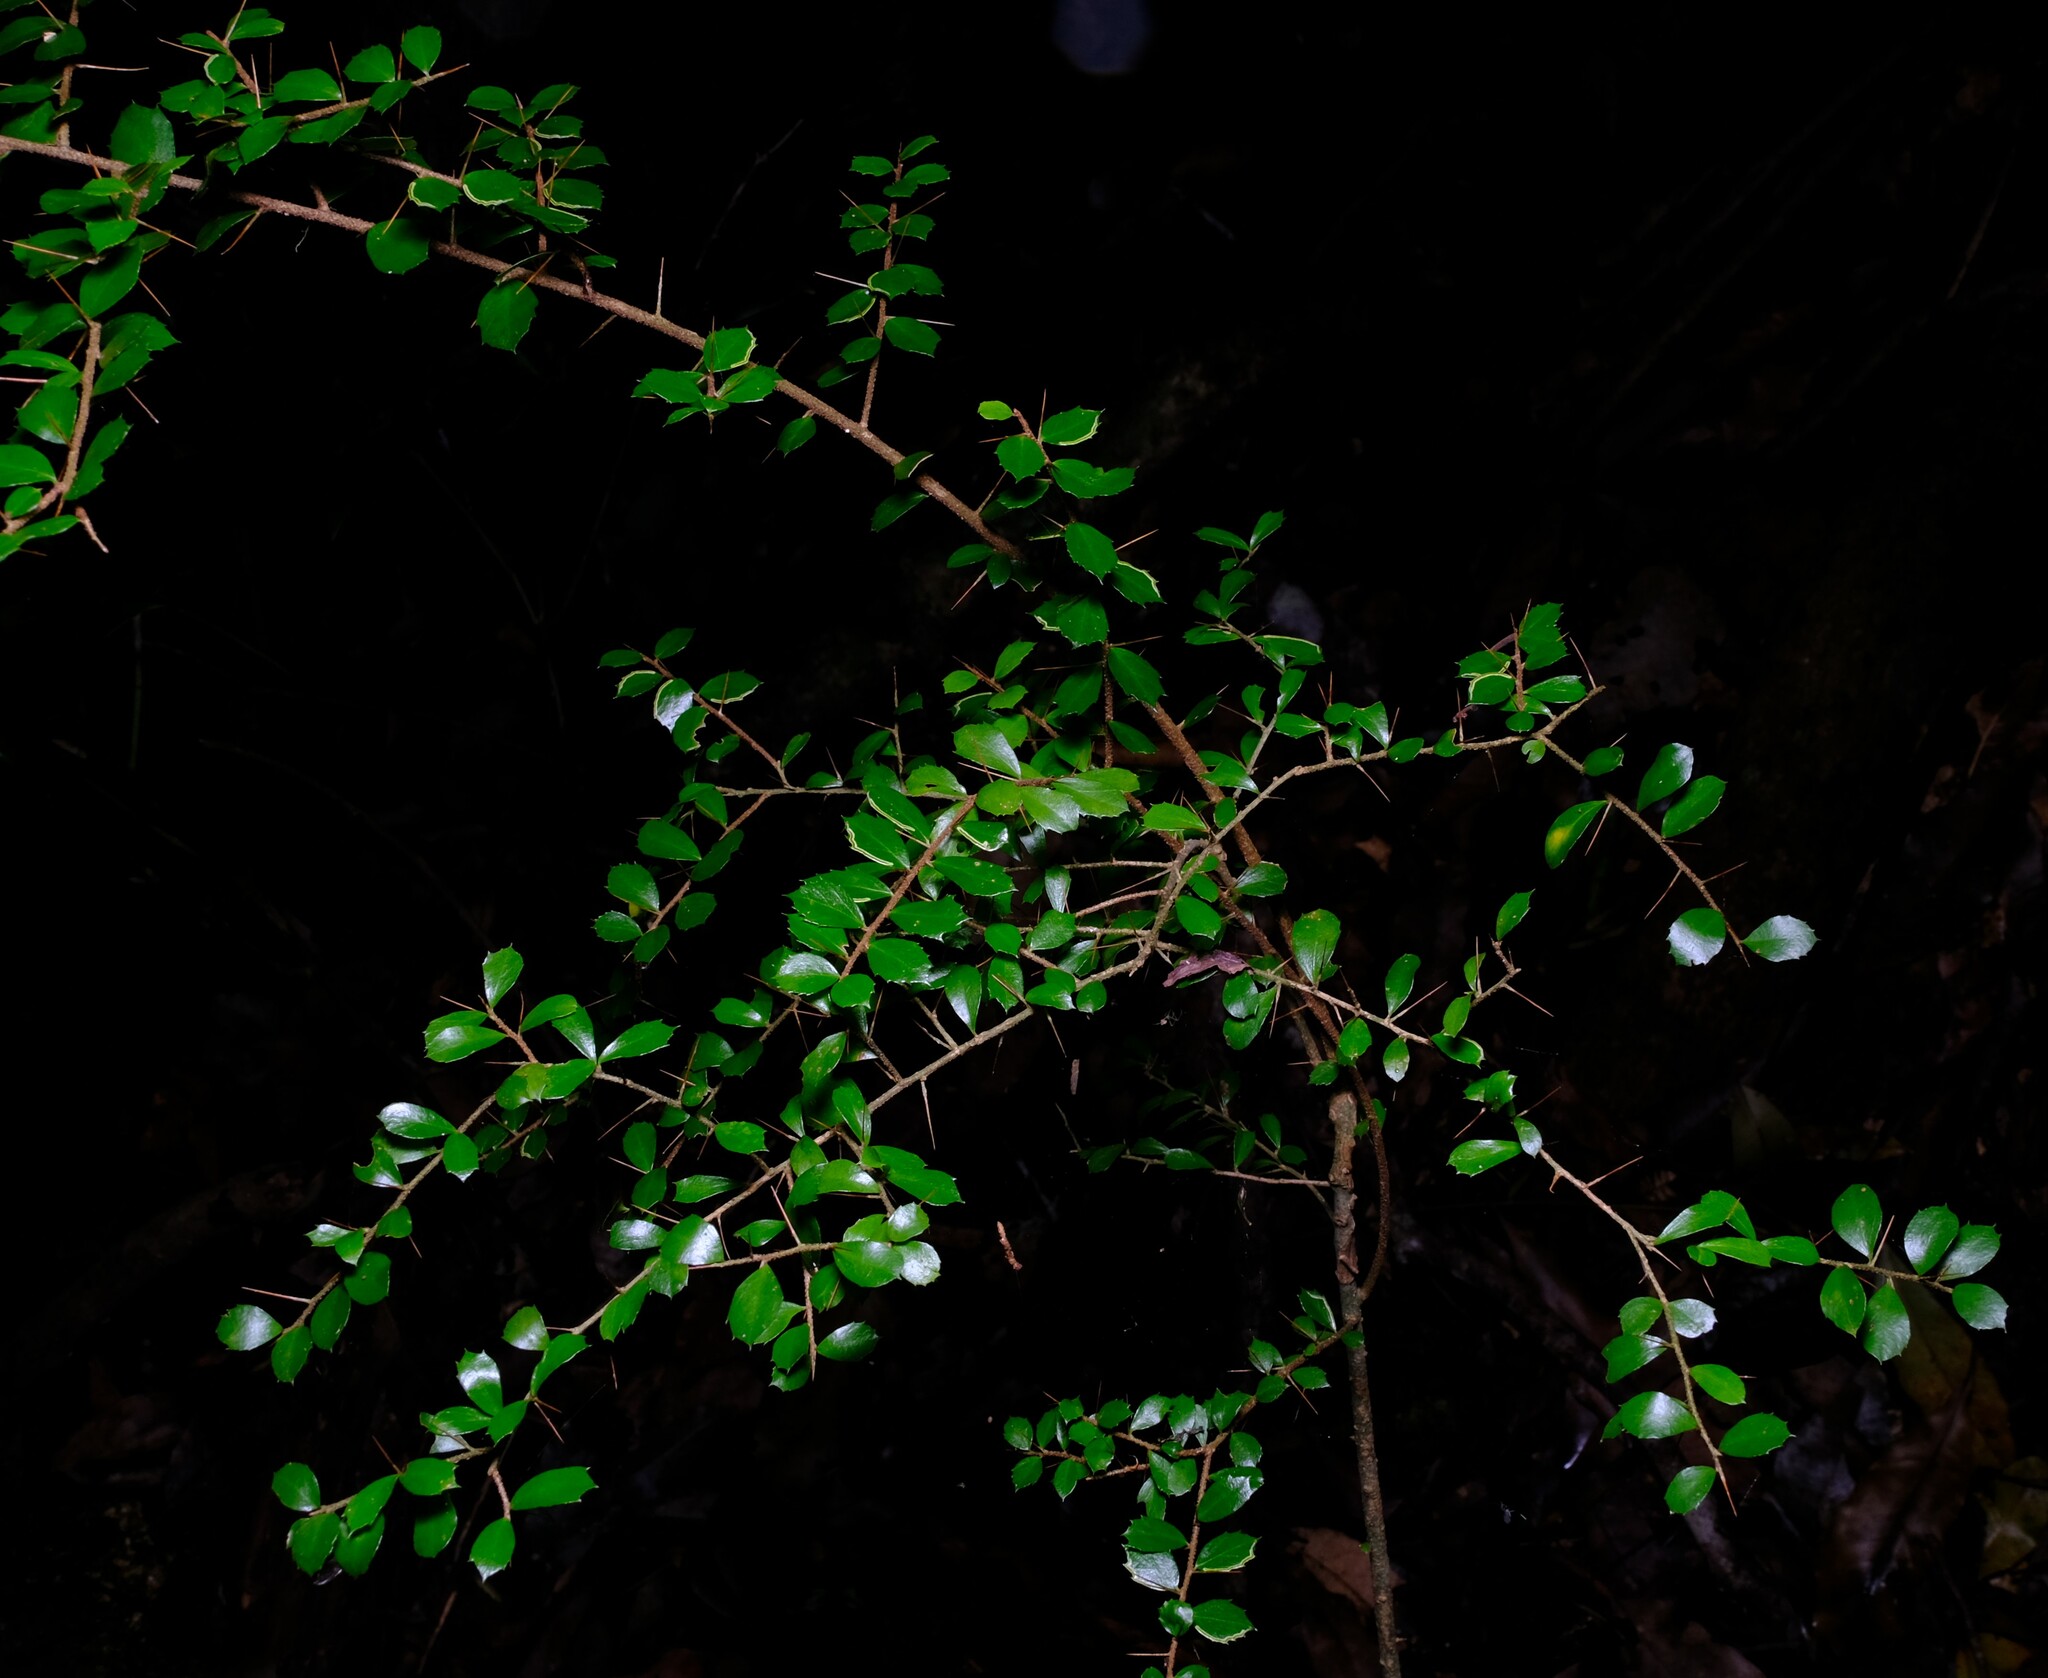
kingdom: Plantae
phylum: Tracheophyta
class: Magnoliopsida
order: Apiales
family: Pittosporaceae
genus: Pittosporum
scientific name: Pittosporum multiflorum
